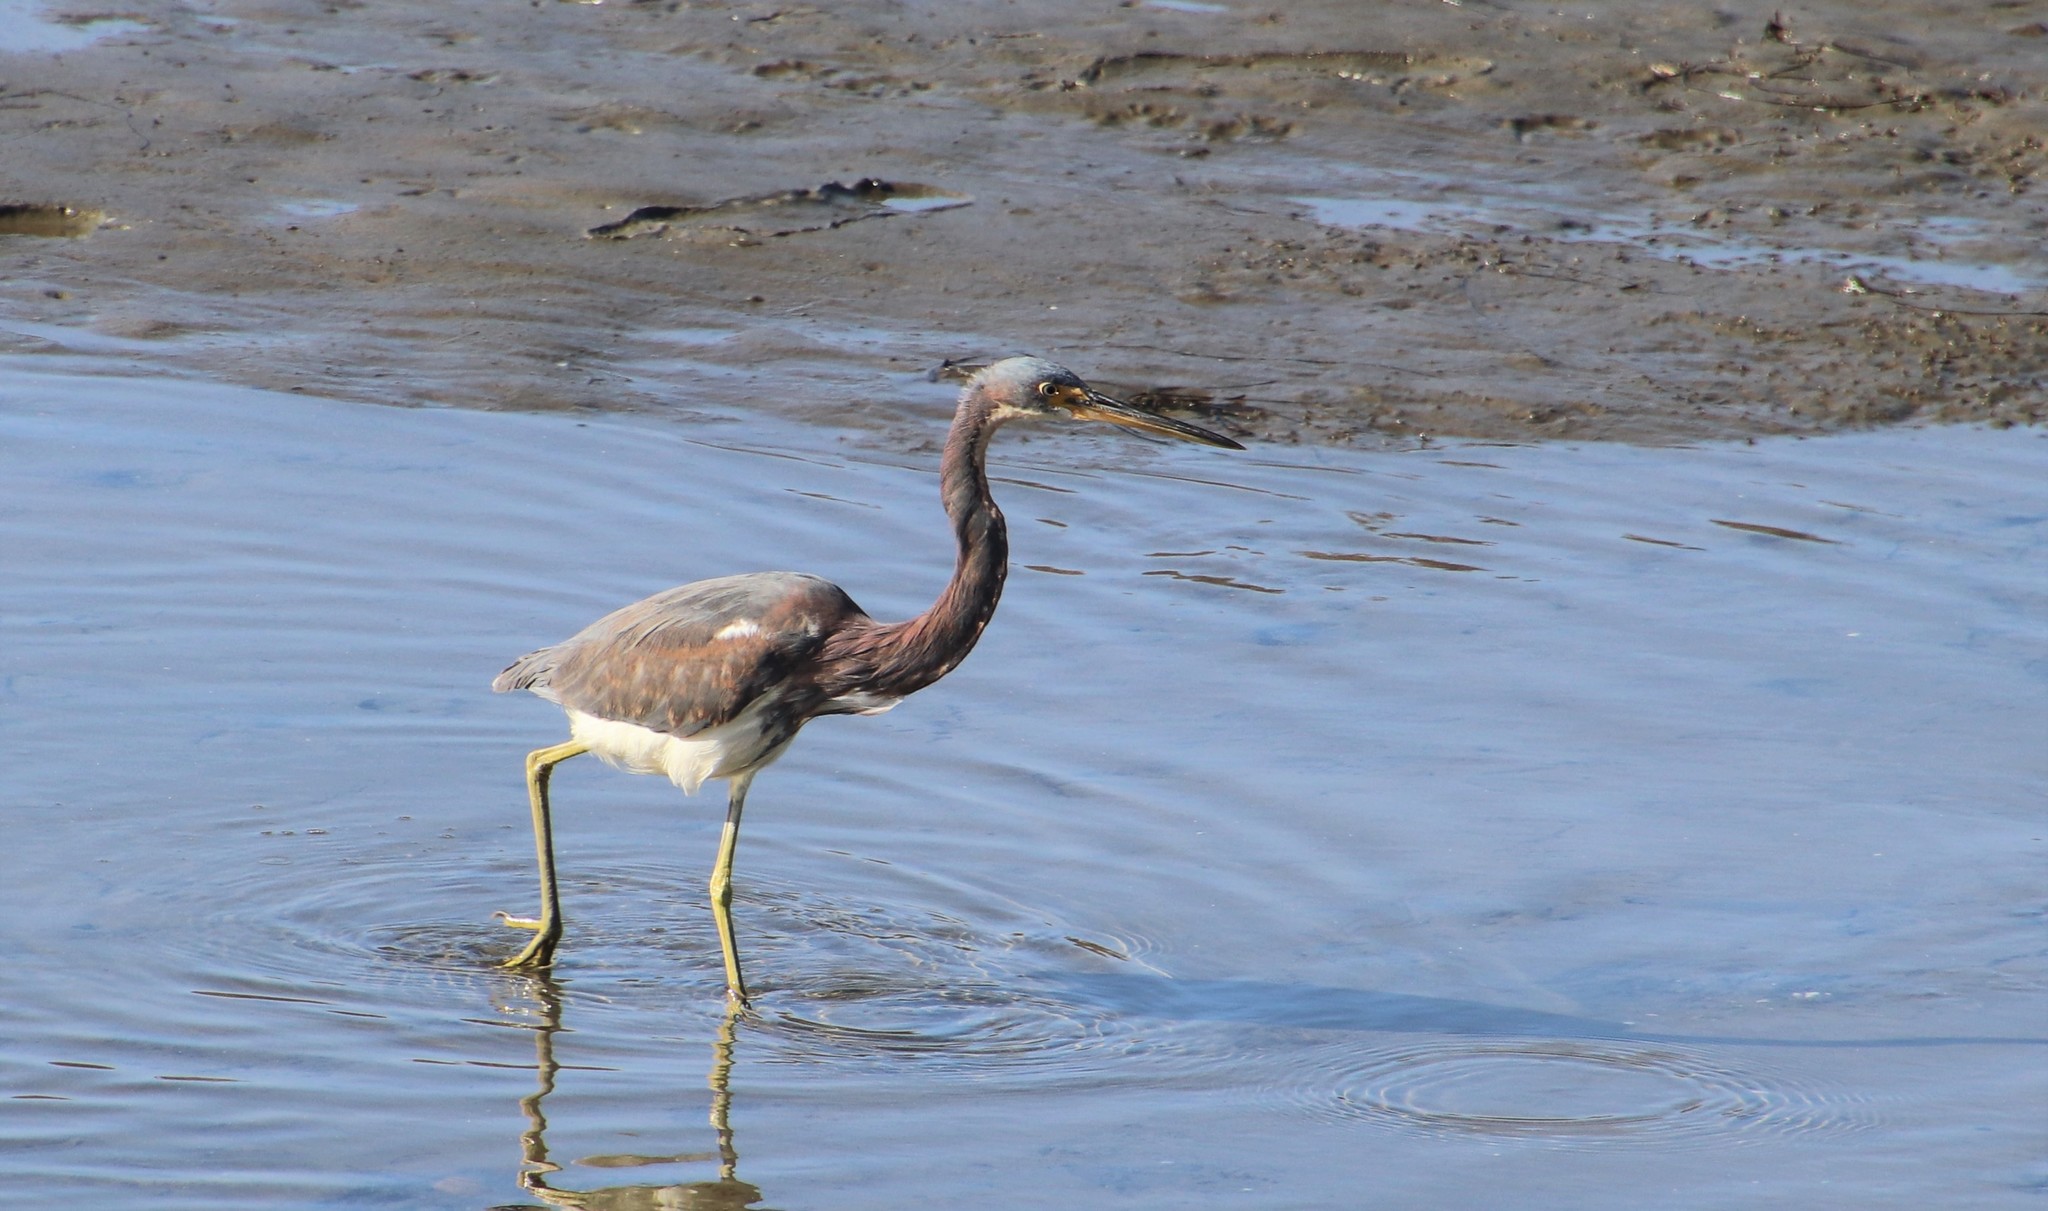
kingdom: Animalia
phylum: Chordata
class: Aves
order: Pelecaniformes
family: Ardeidae
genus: Egretta
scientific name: Egretta tricolor
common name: Tricolored heron
